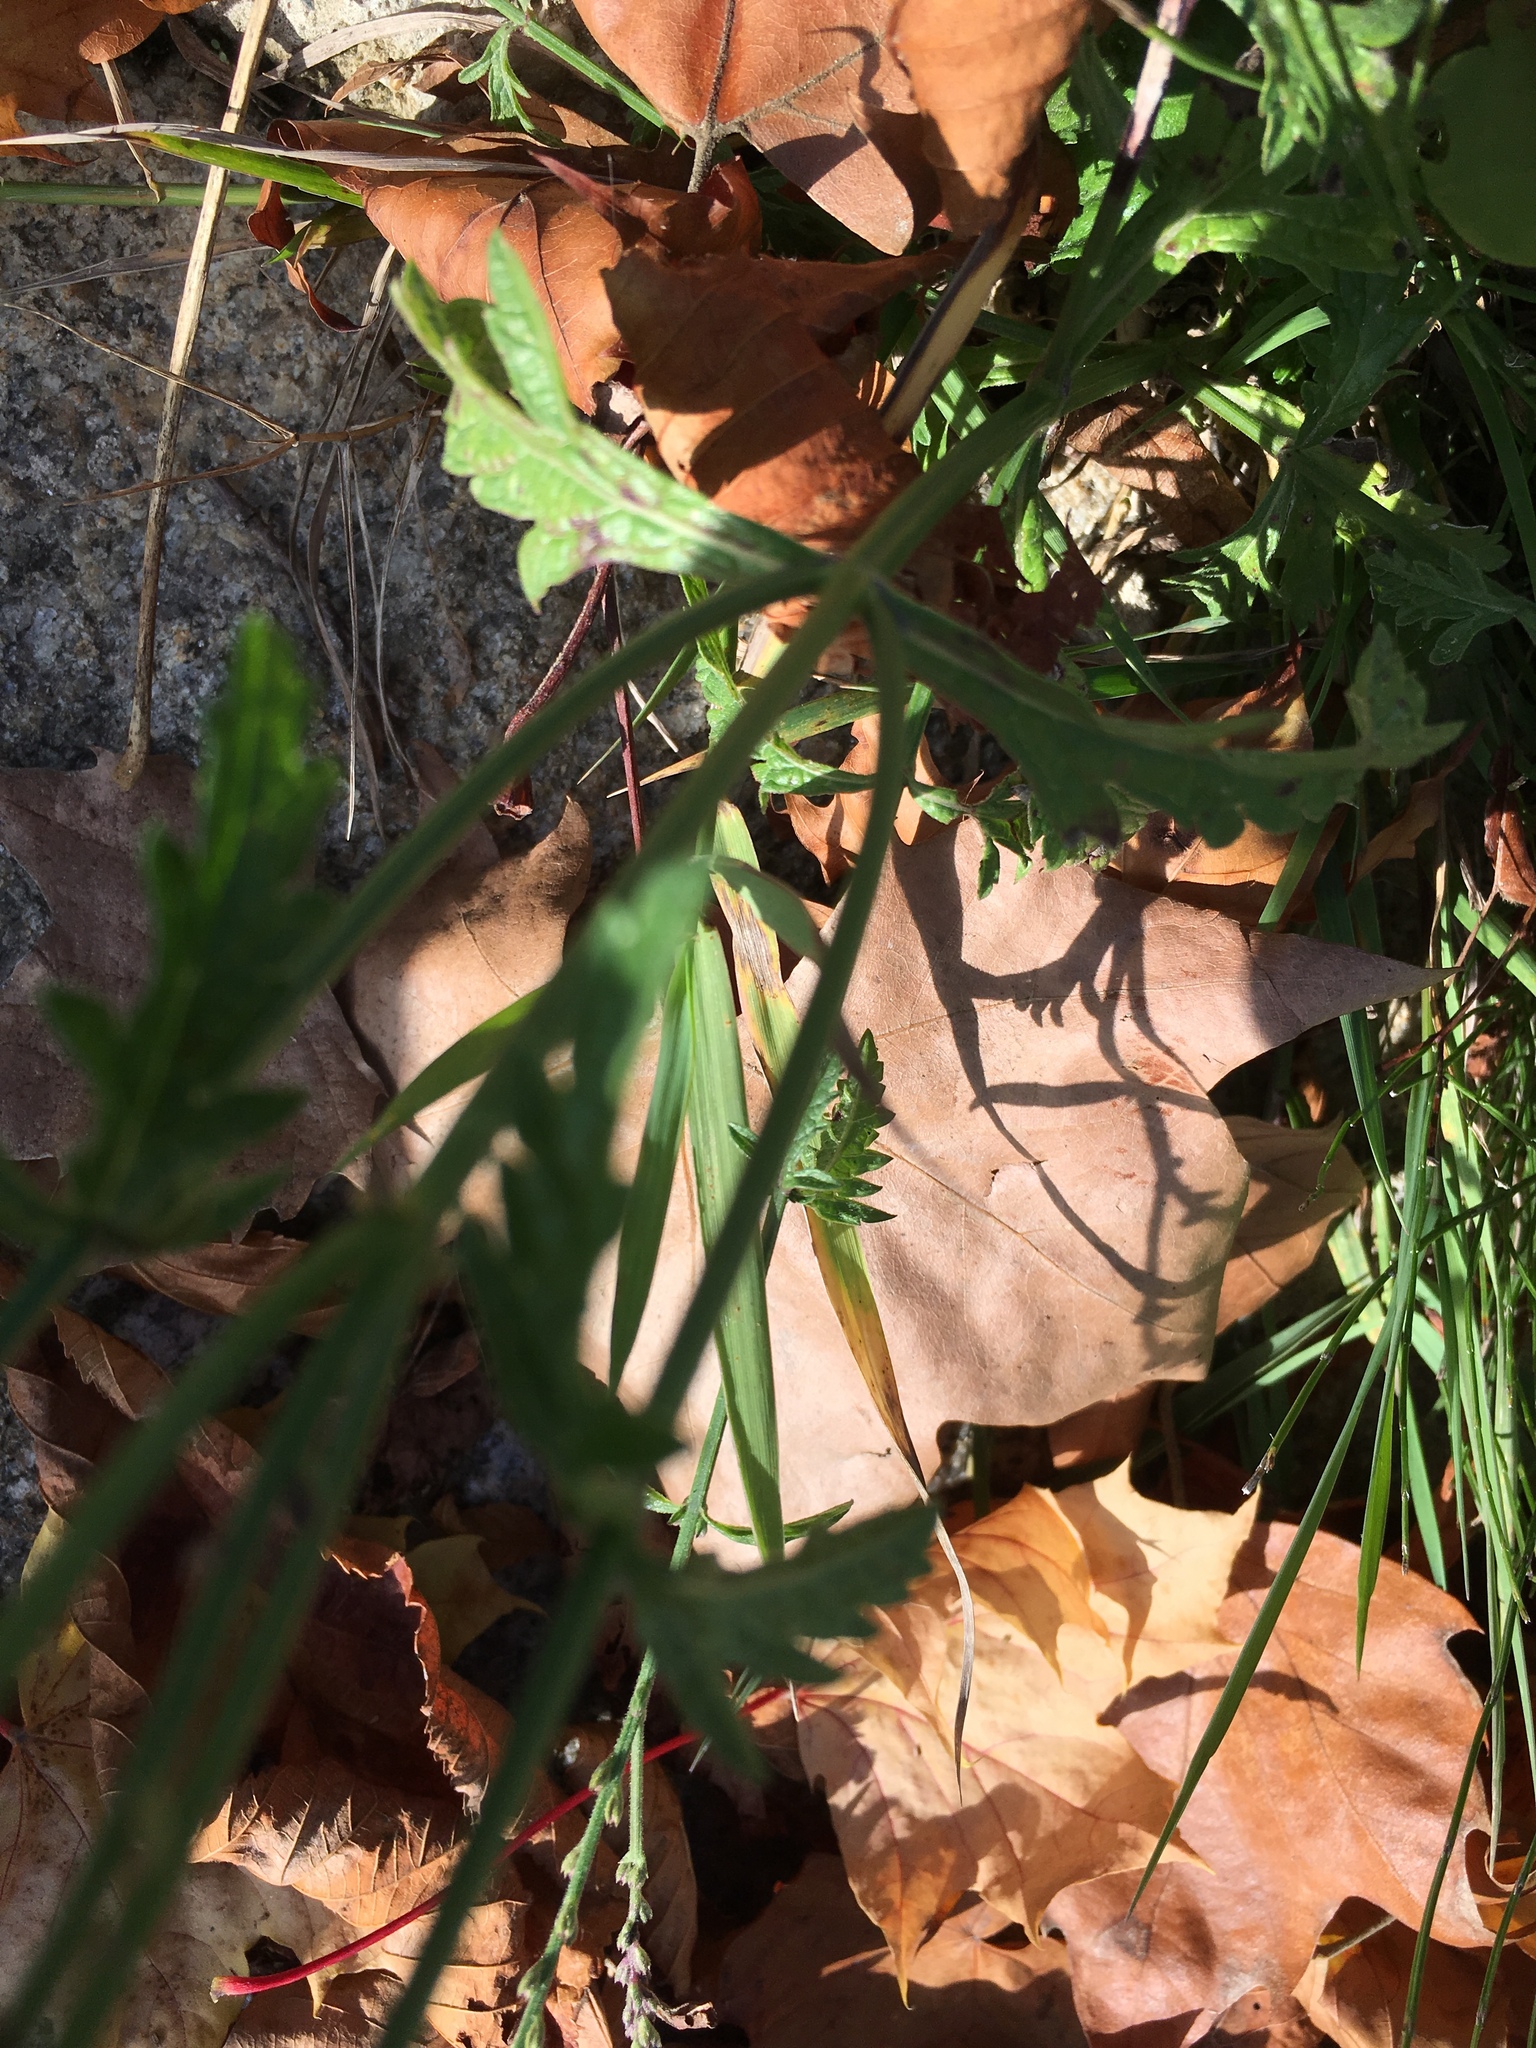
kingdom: Plantae
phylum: Tracheophyta
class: Magnoliopsida
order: Lamiales
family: Verbenaceae
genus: Verbena
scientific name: Verbena officinalis
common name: Vervain
